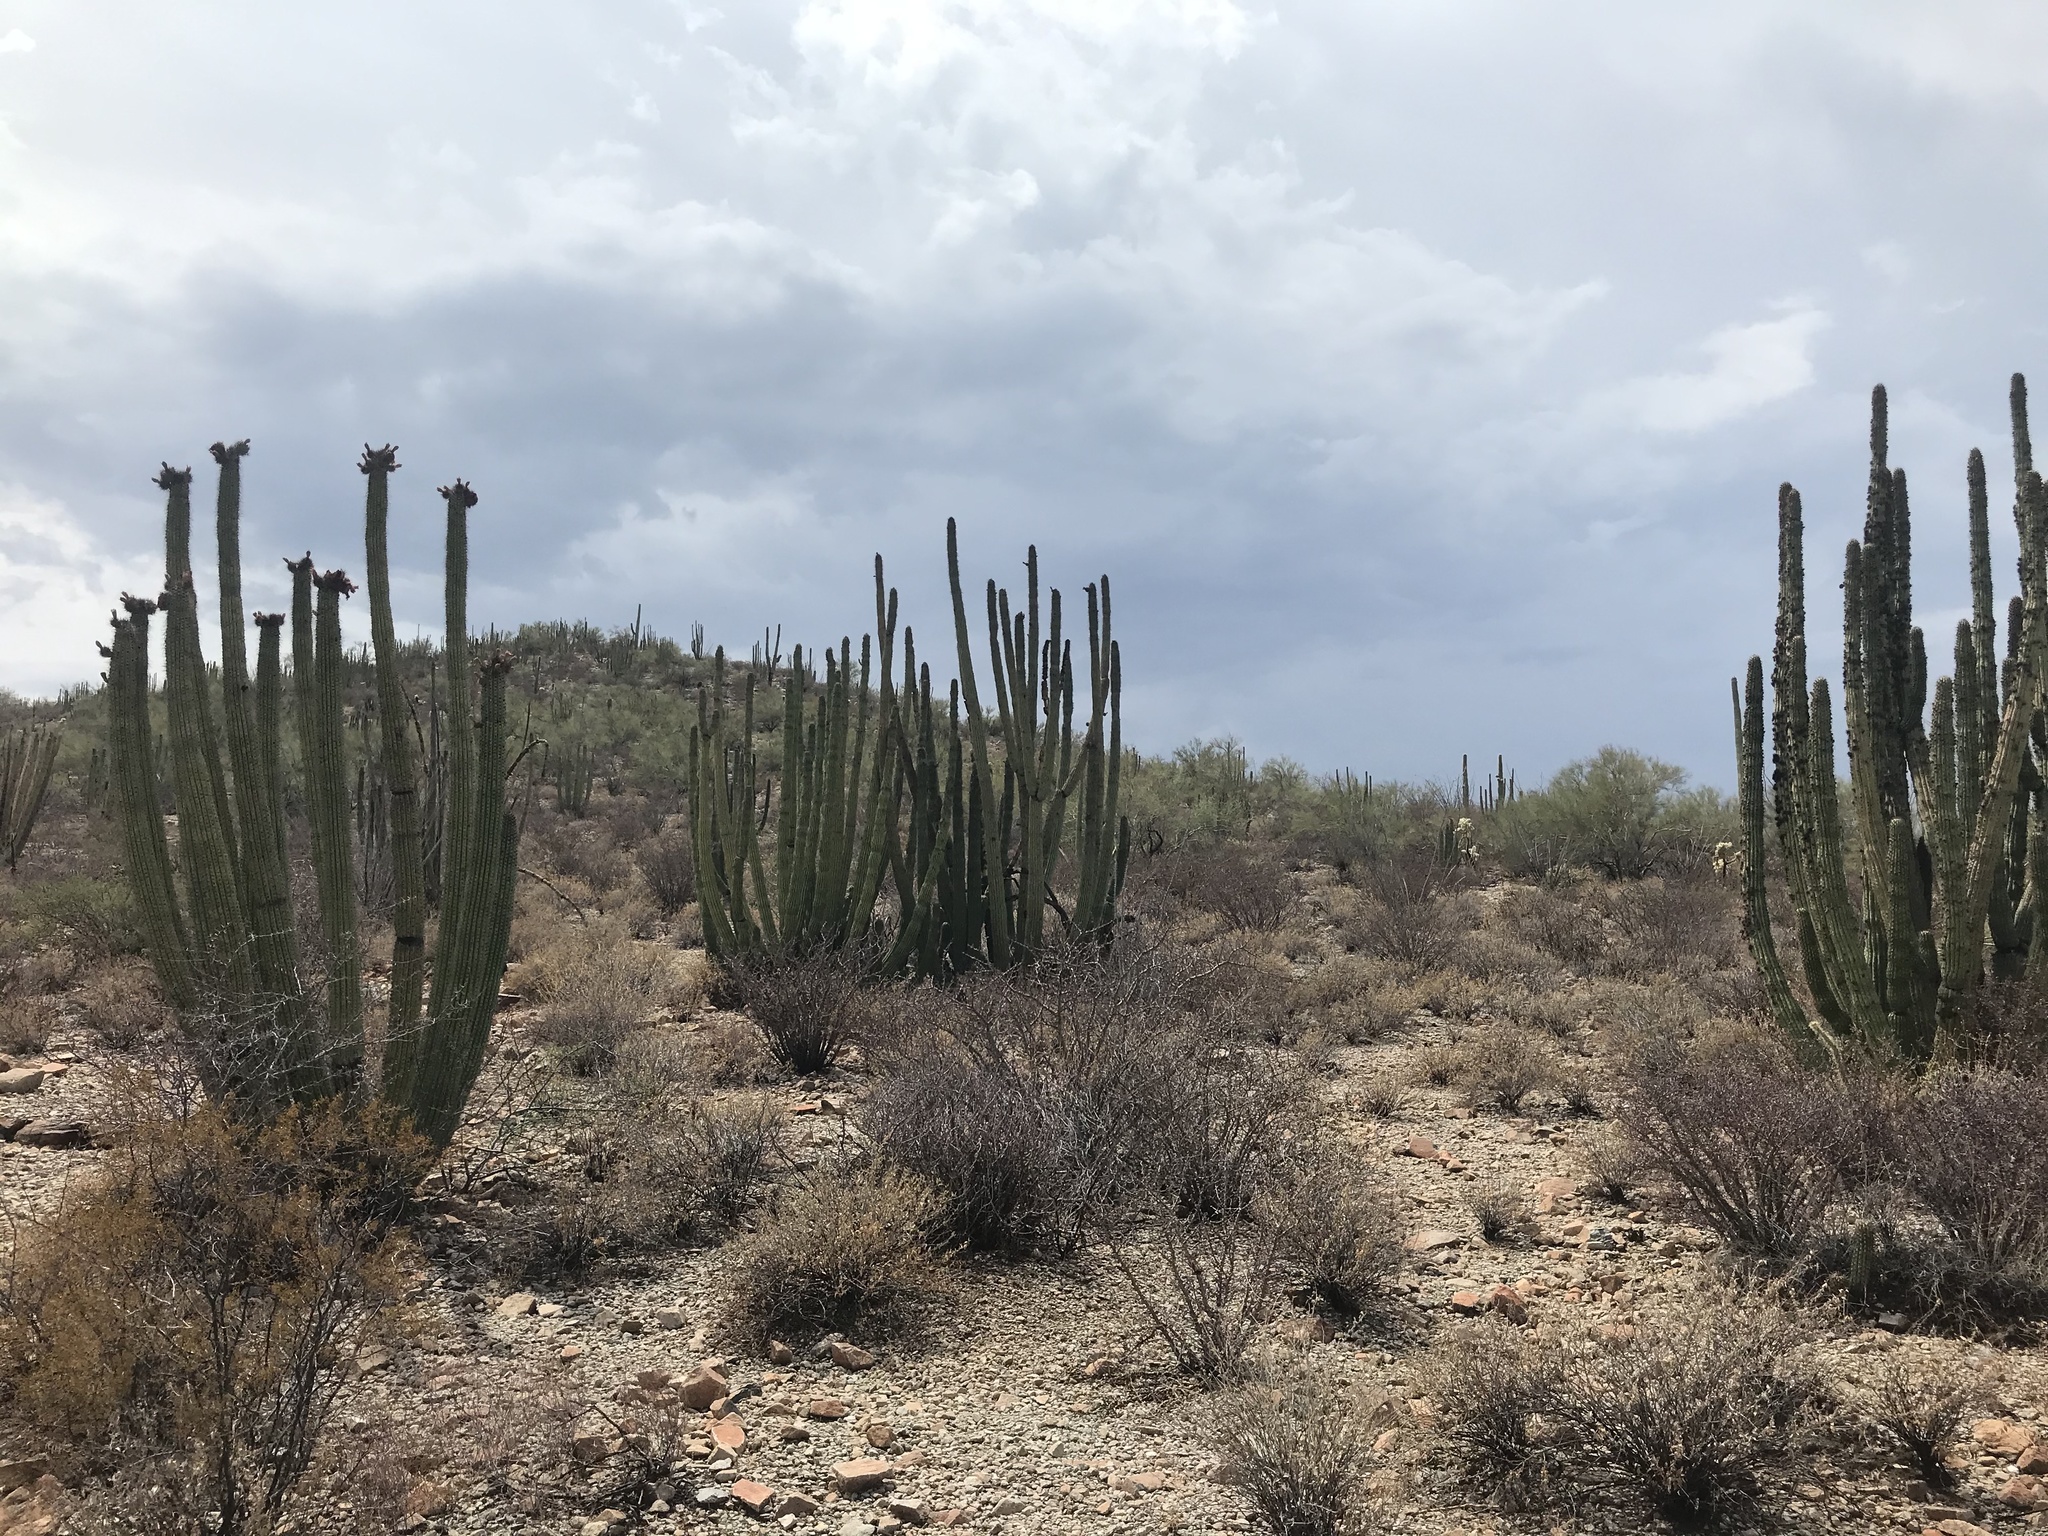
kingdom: Plantae
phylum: Tracheophyta
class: Magnoliopsida
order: Caryophyllales
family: Cactaceae
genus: Stenocereus
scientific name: Stenocereus thurberi
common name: Organ pipe cactus
